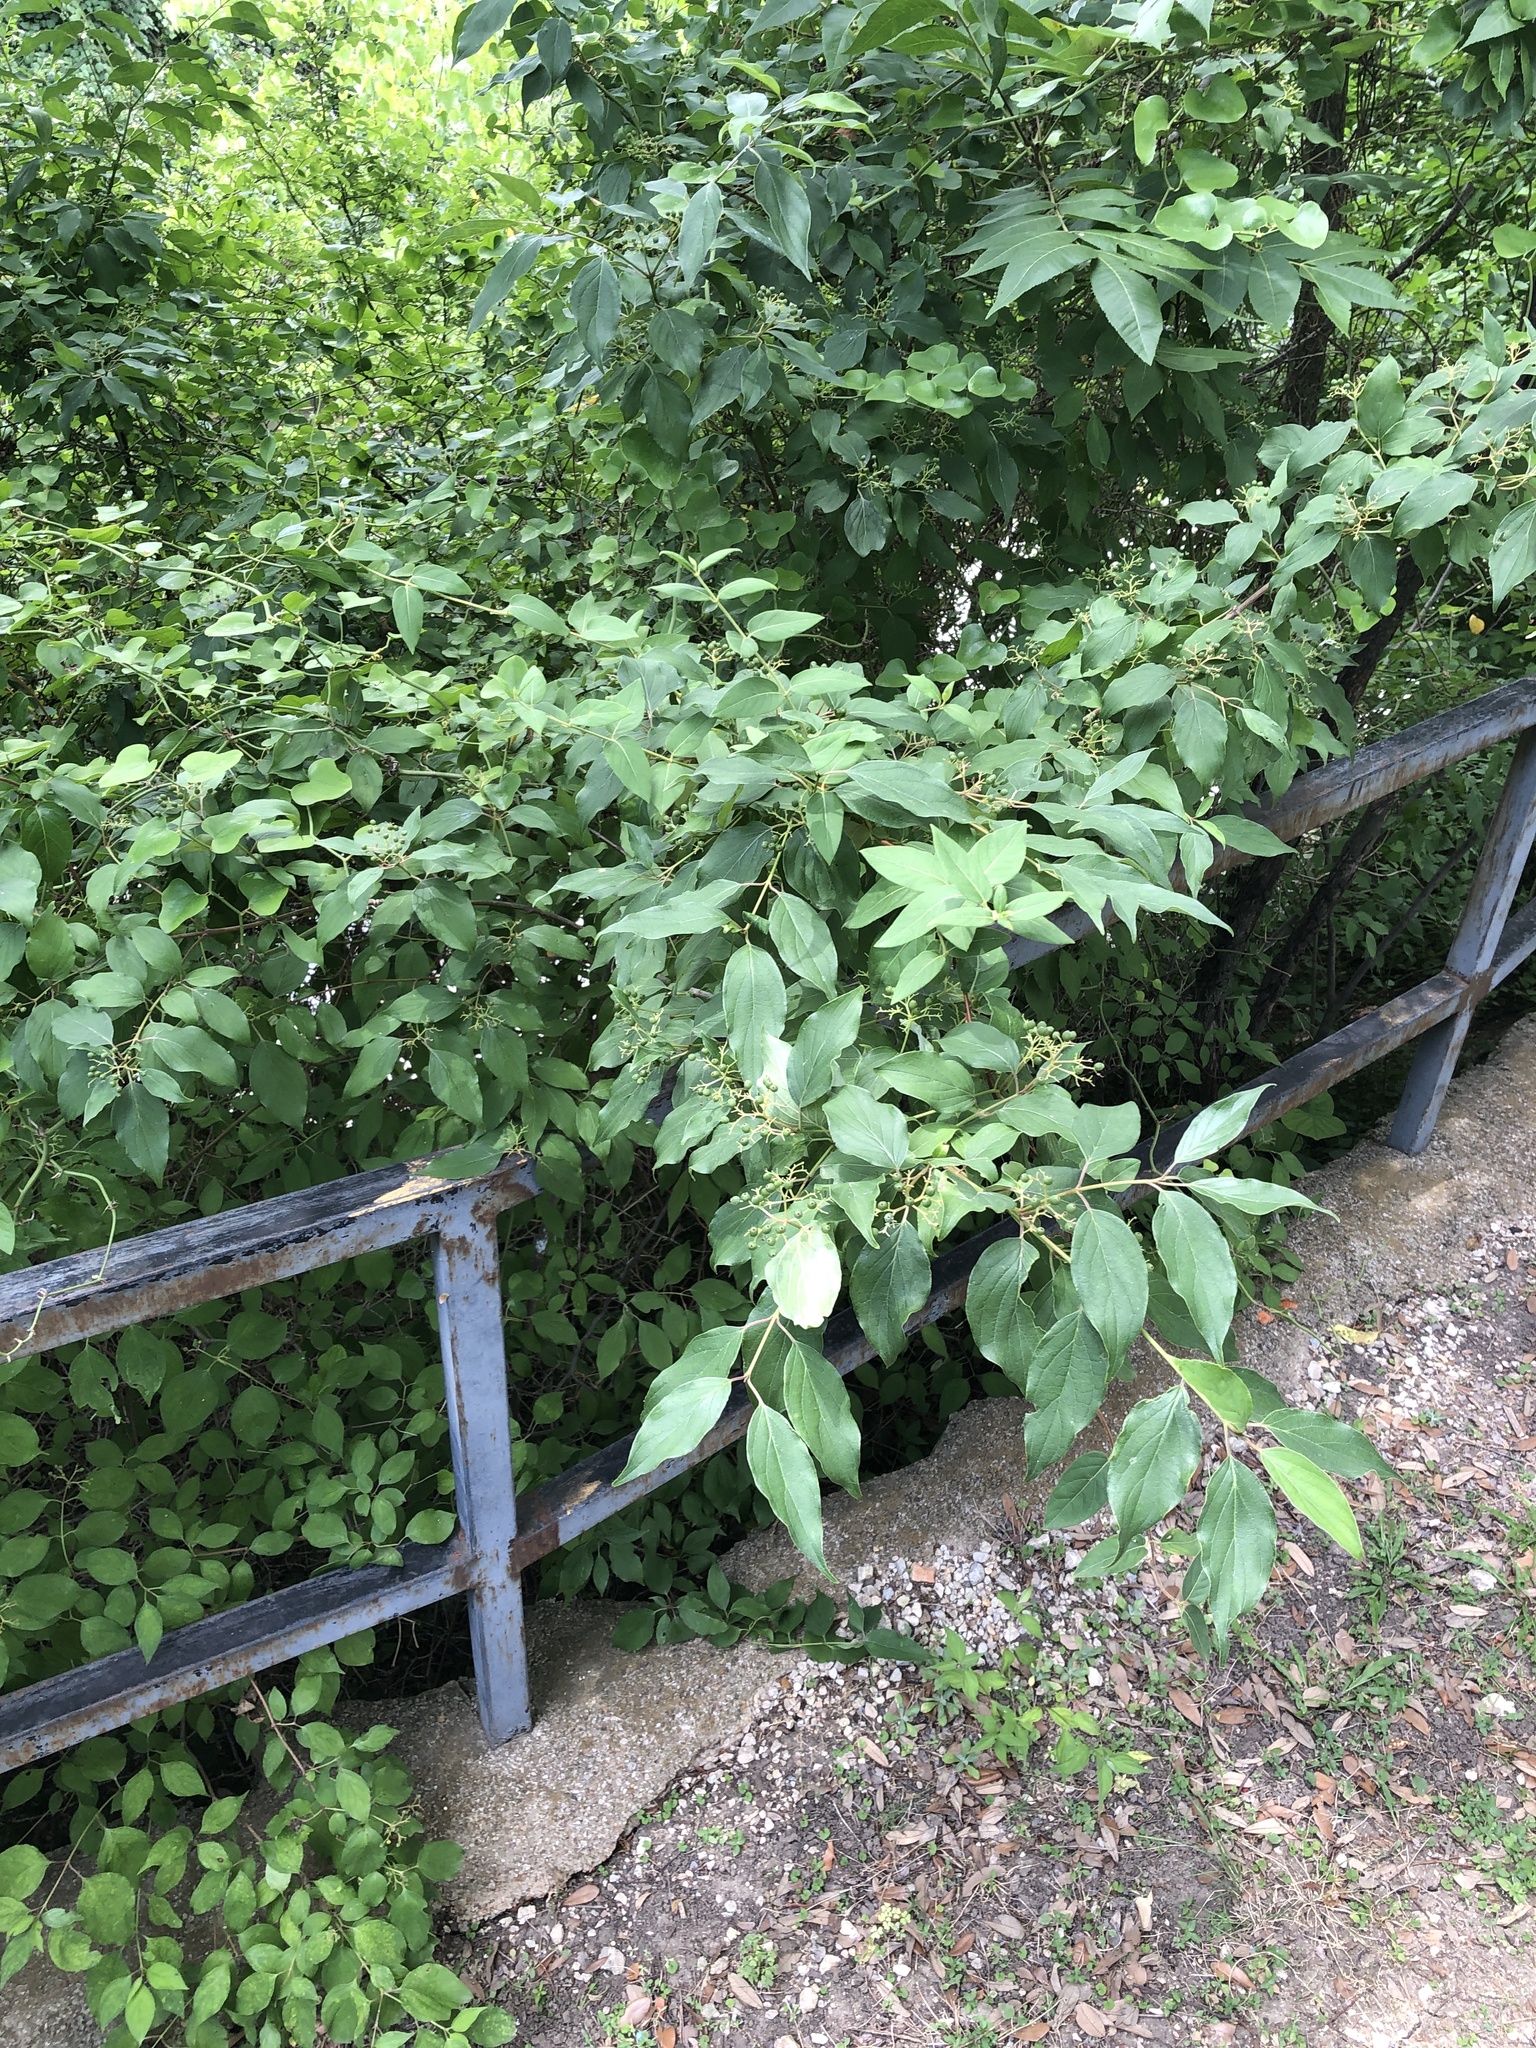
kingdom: Plantae
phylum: Tracheophyta
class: Magnoliopsida
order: Cornales
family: Cornaceae
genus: Cornus
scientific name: Cornus drummondii
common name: Rough-leaf dogwood
